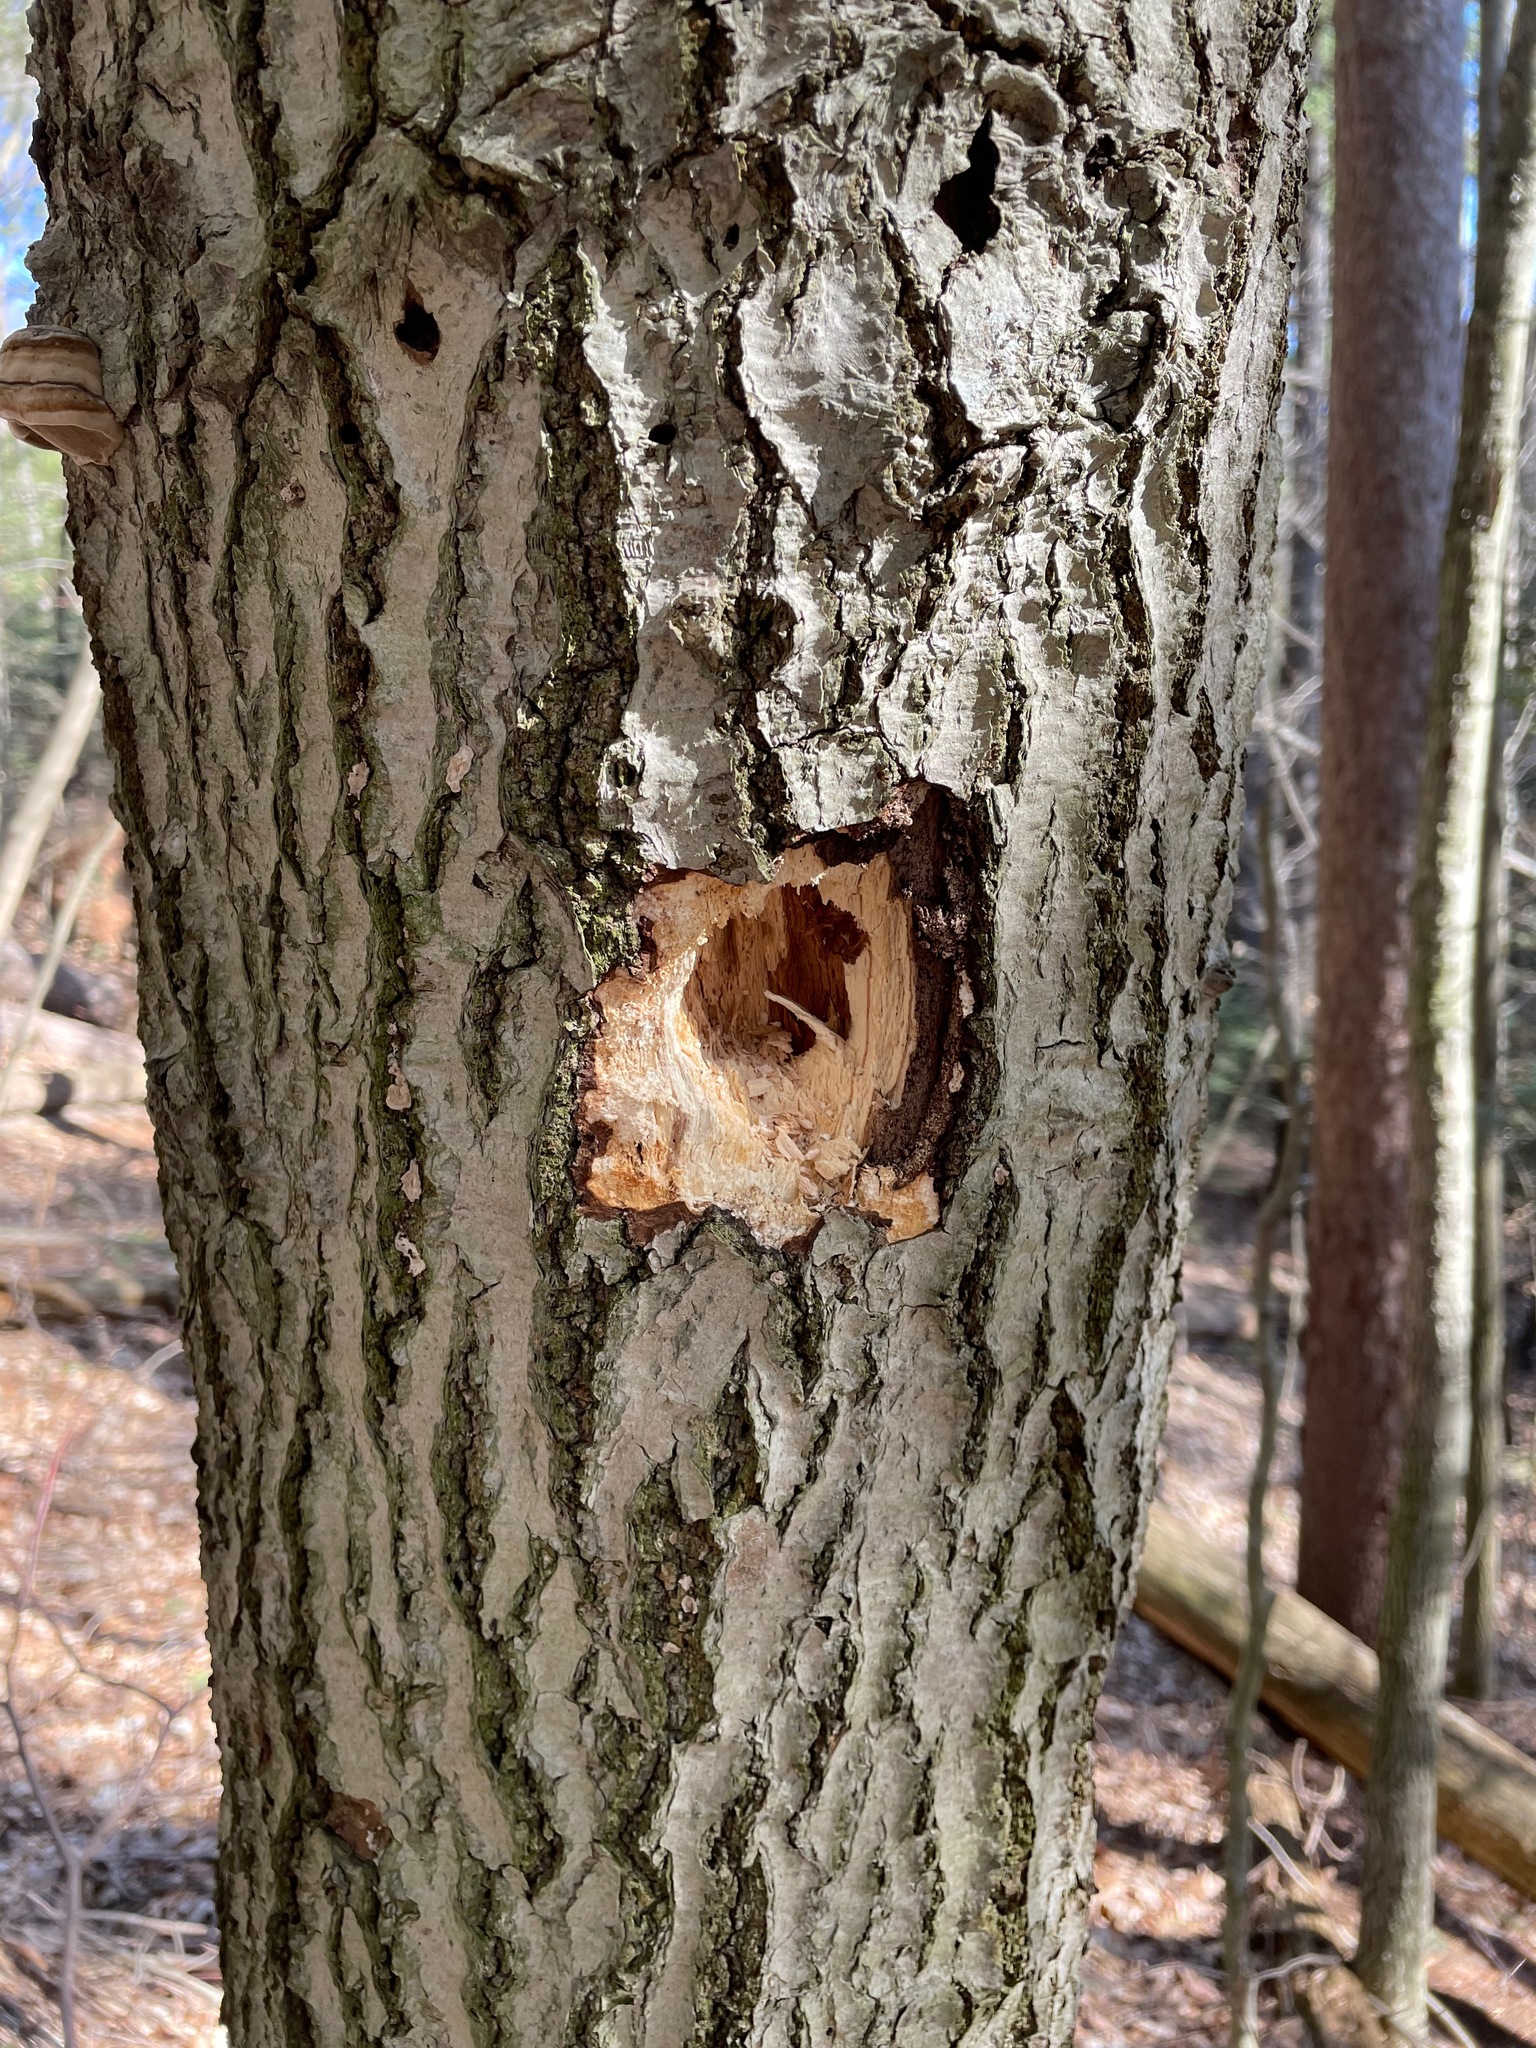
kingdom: Animalia
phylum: Chordata
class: Aves
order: Piciformes
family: Picidae
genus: Dryocopus
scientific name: Dryocopus pileatus
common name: Pileated woodpecker
